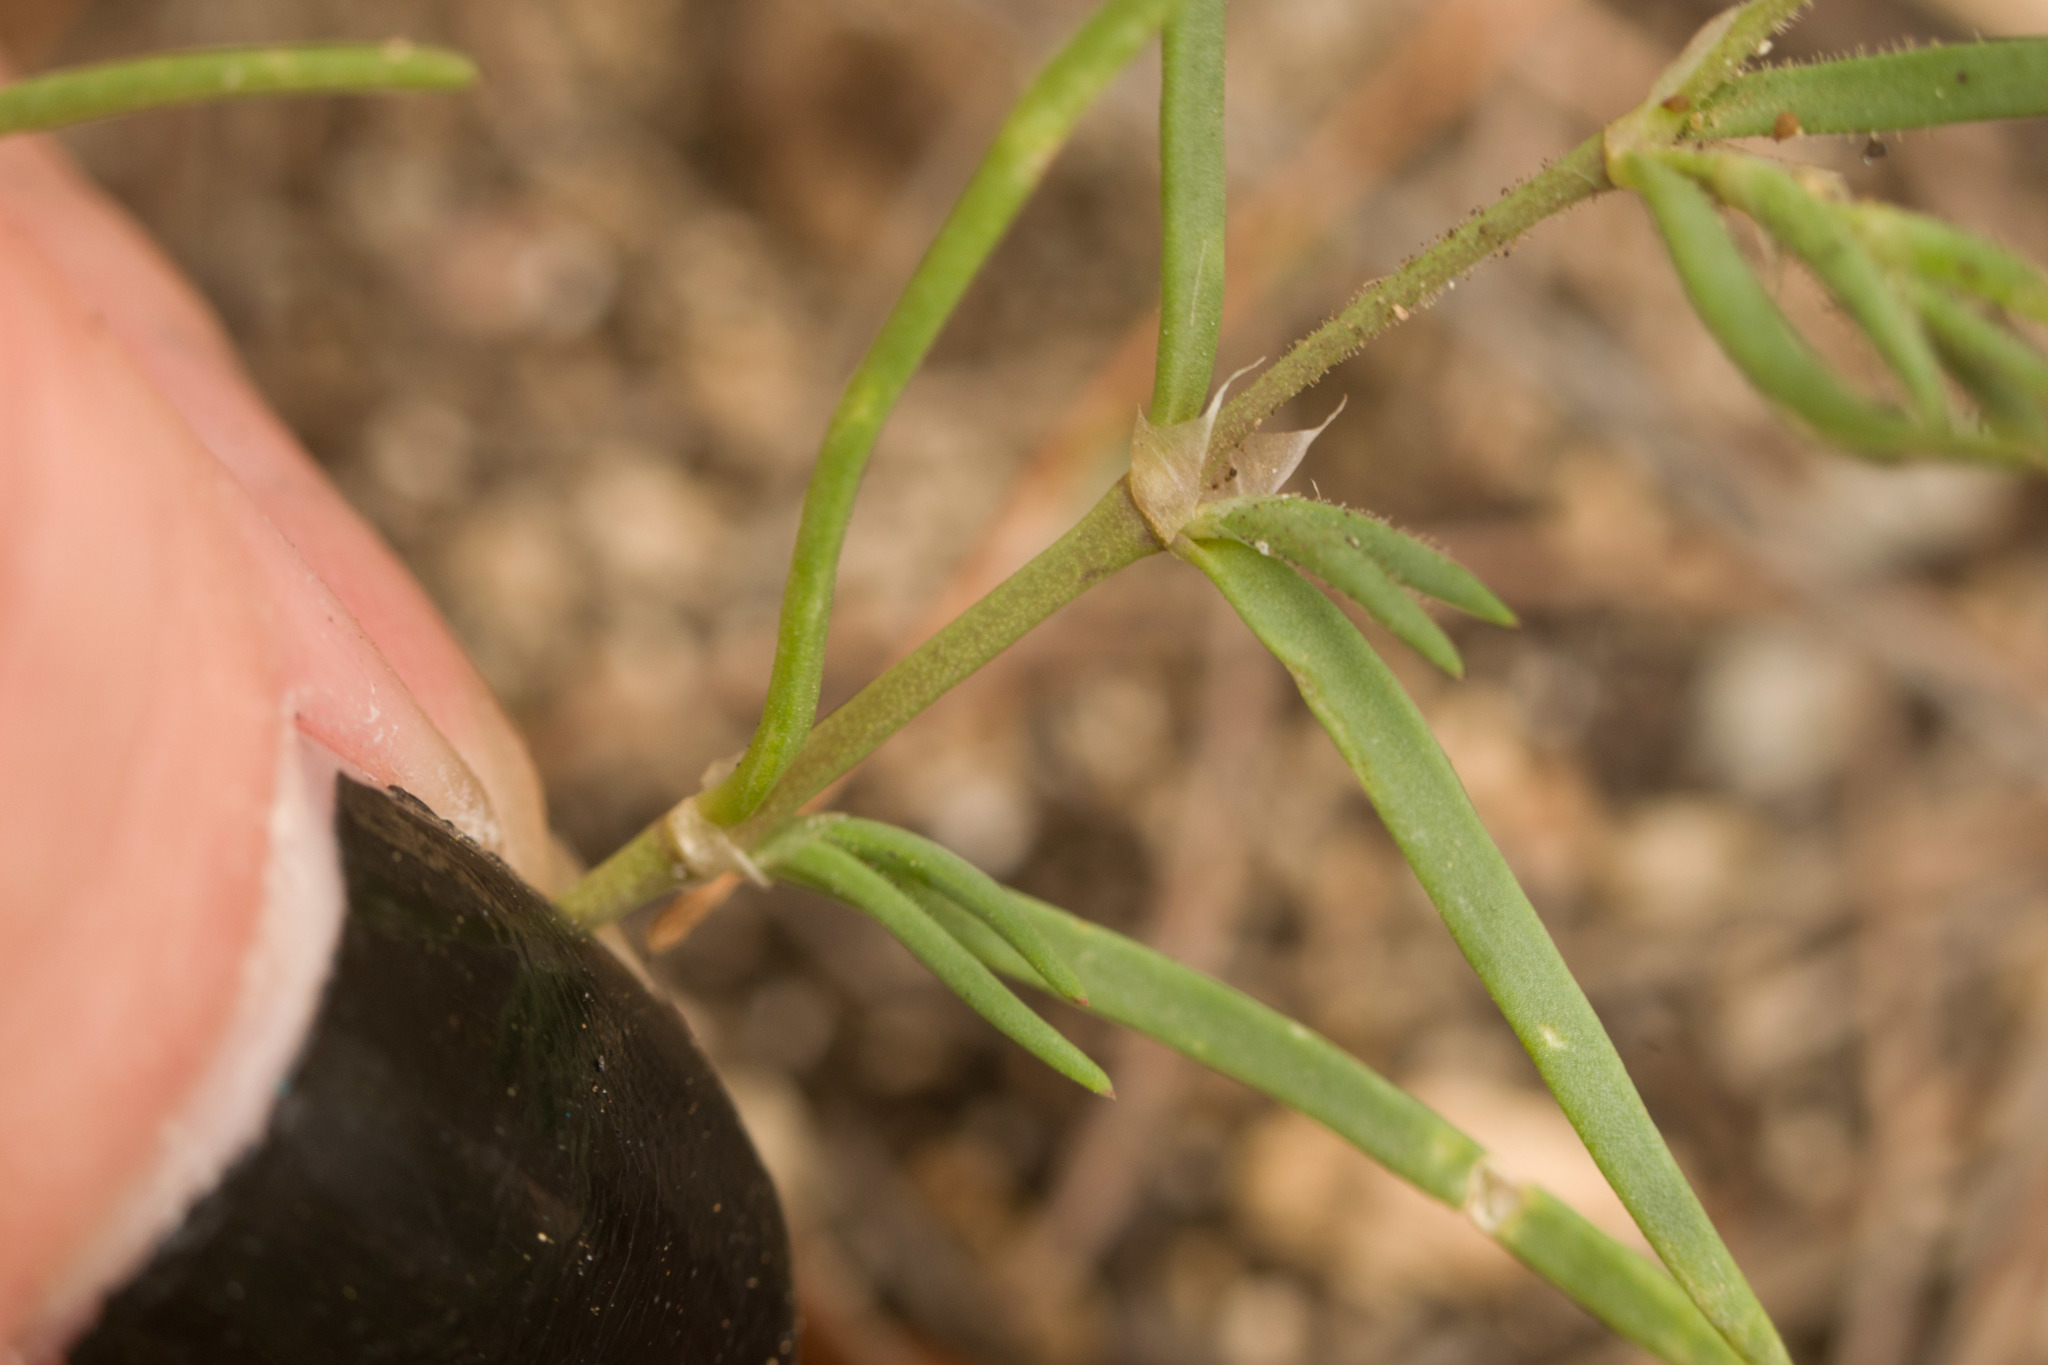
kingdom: Plantae
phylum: Tracheophyta
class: Magnoliopsida
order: Caryophyllales
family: Caryophyllaceae
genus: Spergularia
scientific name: Spergularia marina
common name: Lesser sea-spurrey
